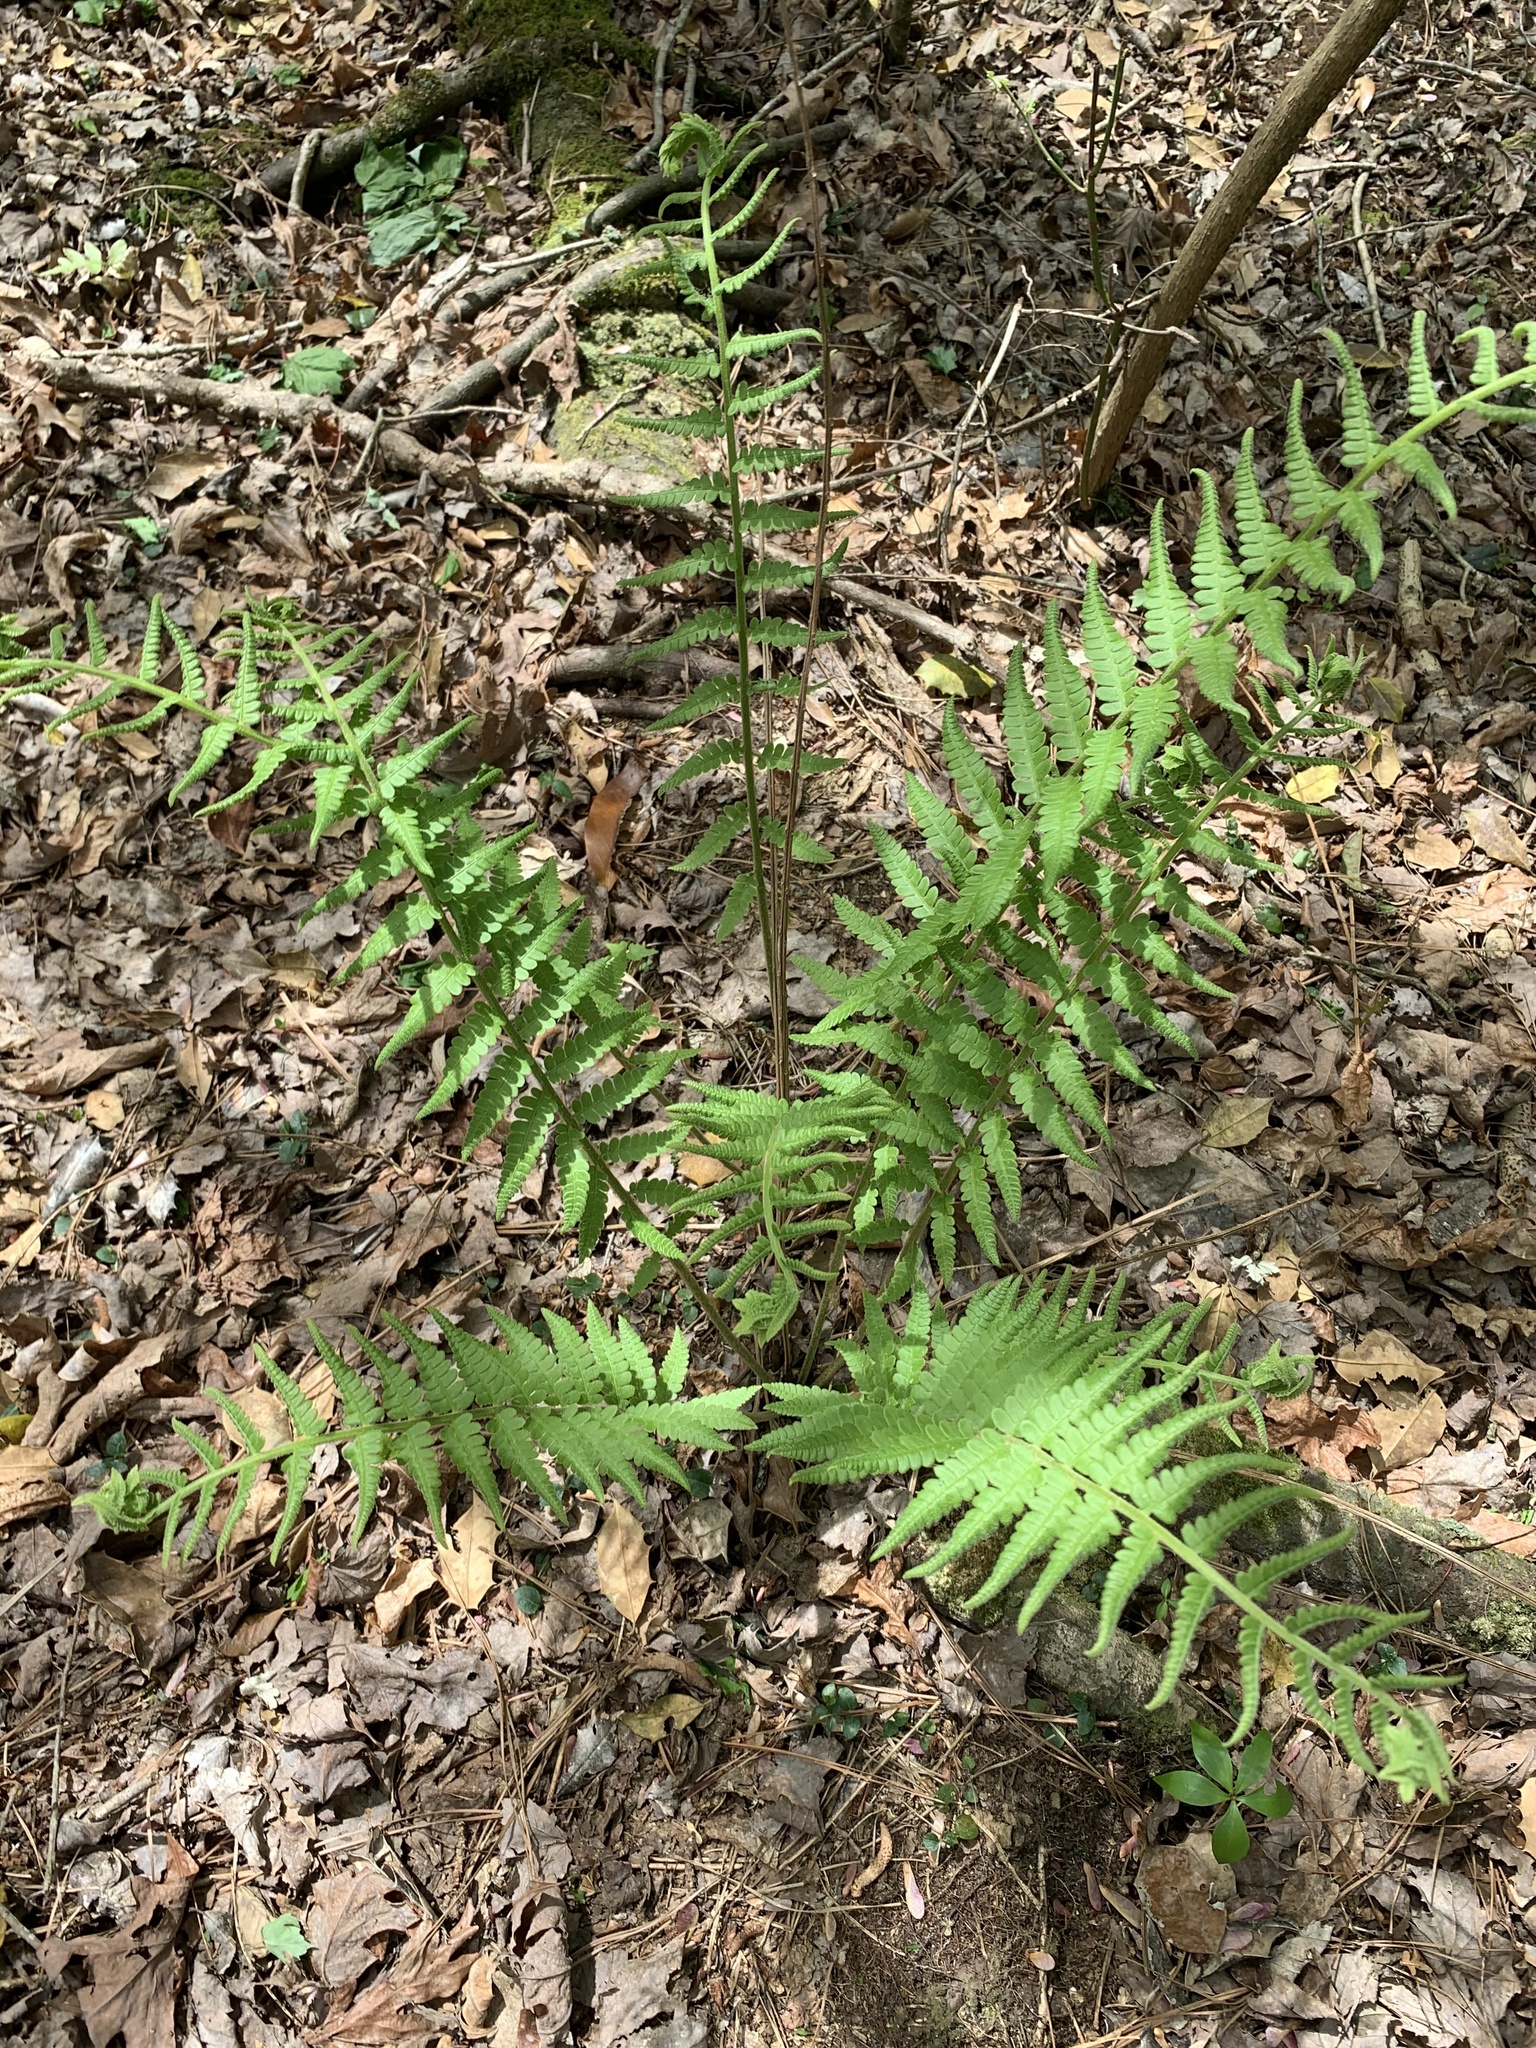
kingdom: Plantae
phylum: Tracheophyta
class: Polypodiopsida
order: Osmundales
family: Osmundaceae
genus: Osmundastrum
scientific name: Osmundastrum cinnamomeum
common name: Cinnamon fern
